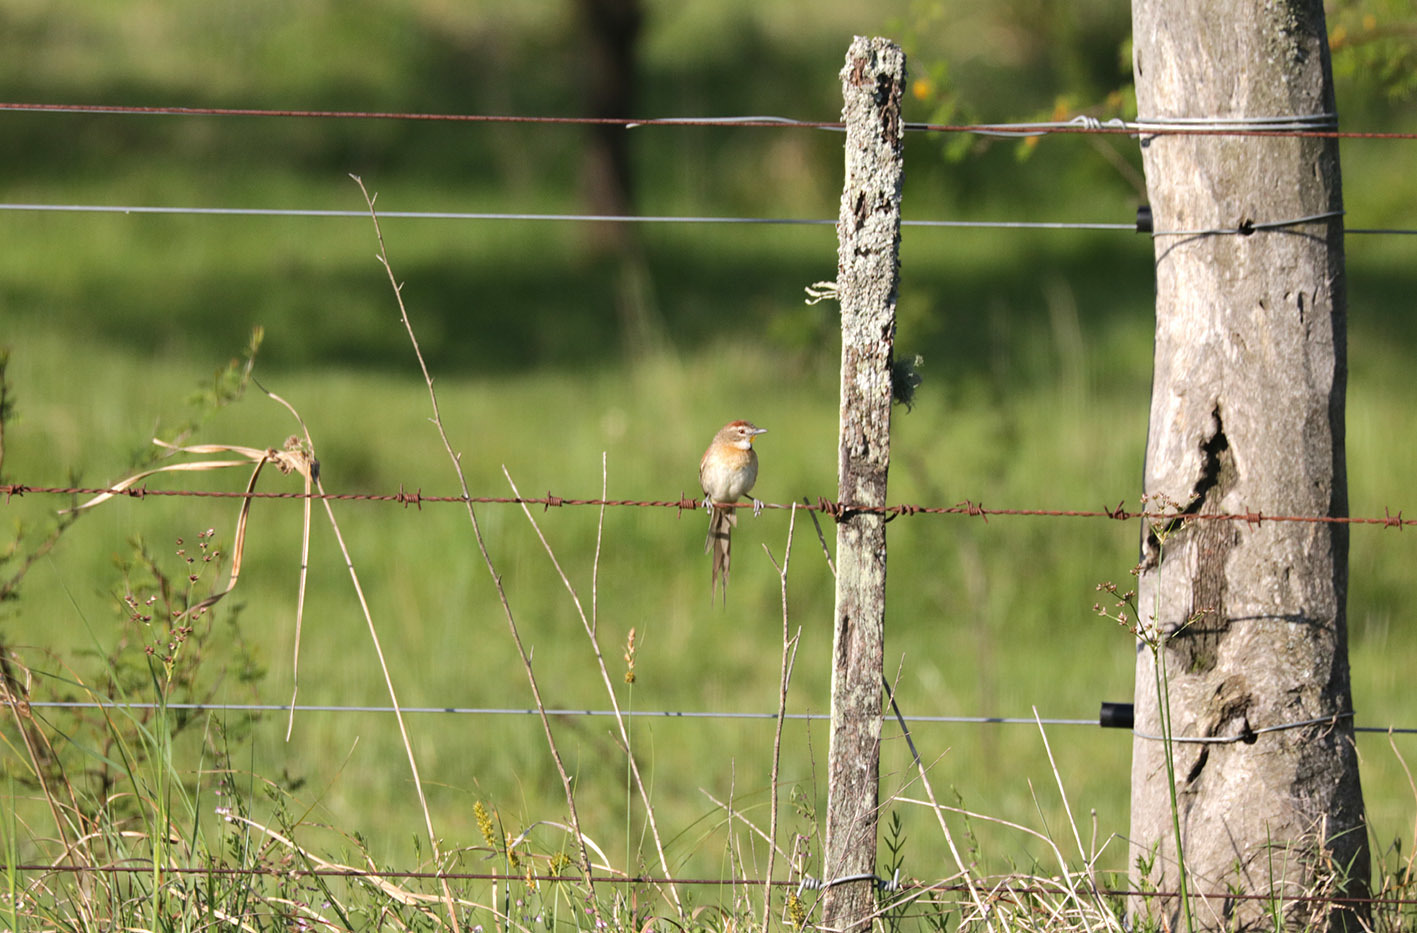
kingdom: Animalia
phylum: Chordata
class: Aves
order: Passeriformes
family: Furnariidae
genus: Schoeniophylax
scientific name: Schoeniophylax phryganophilus
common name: Chotoy spinetail
